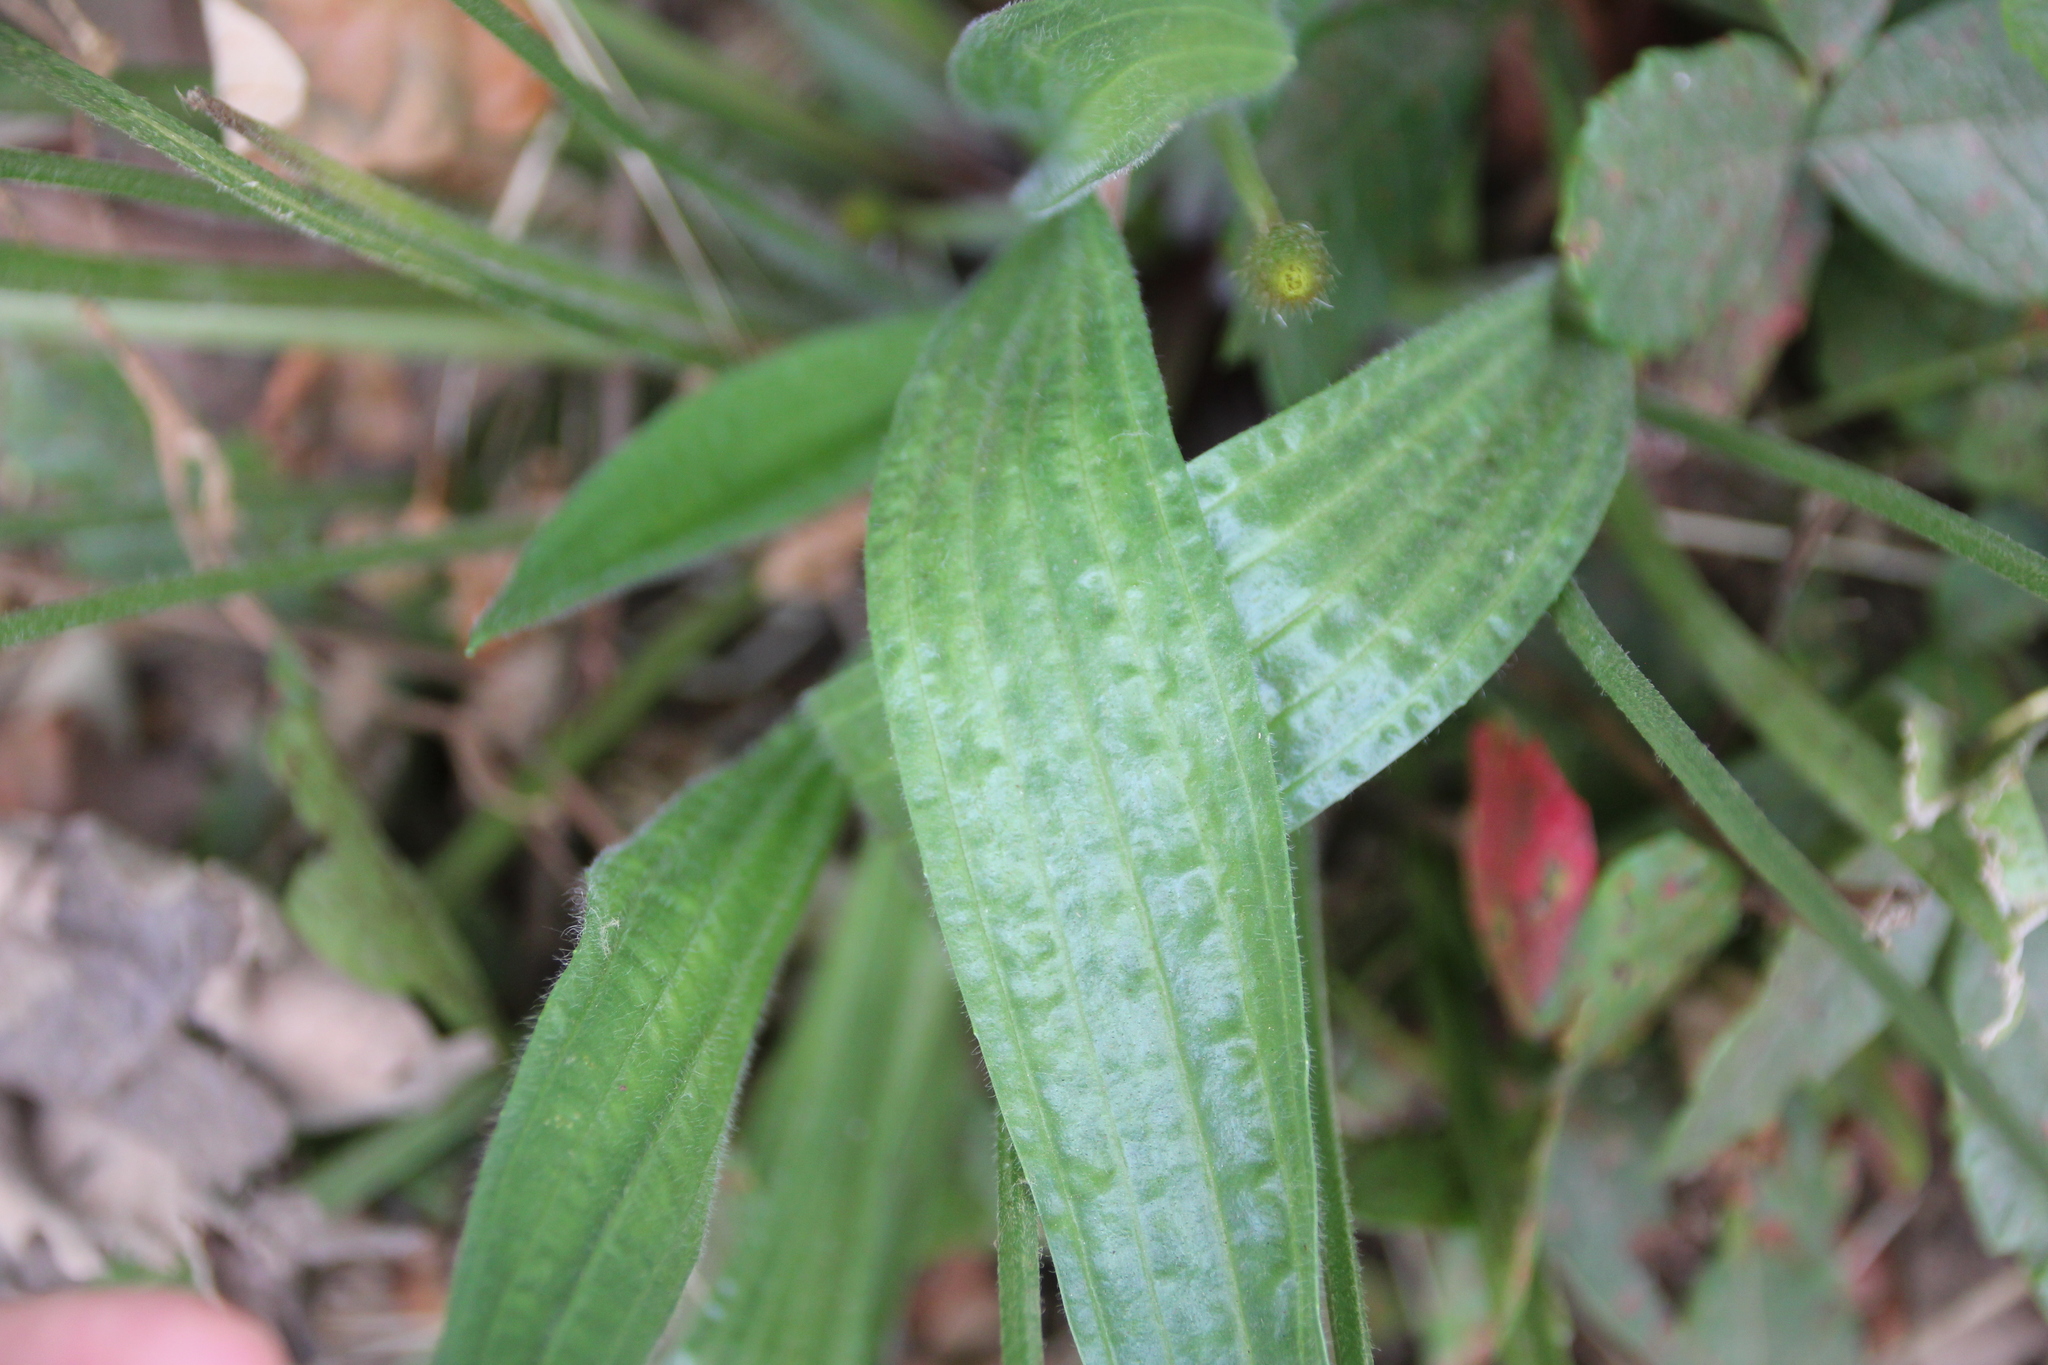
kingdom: Plantae
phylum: Tracheophyta
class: Magnoliopsida
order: Lamiales
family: Plantaginaceae
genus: Plantago
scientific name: Plantago lanceolata
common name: Ribwort plantain
